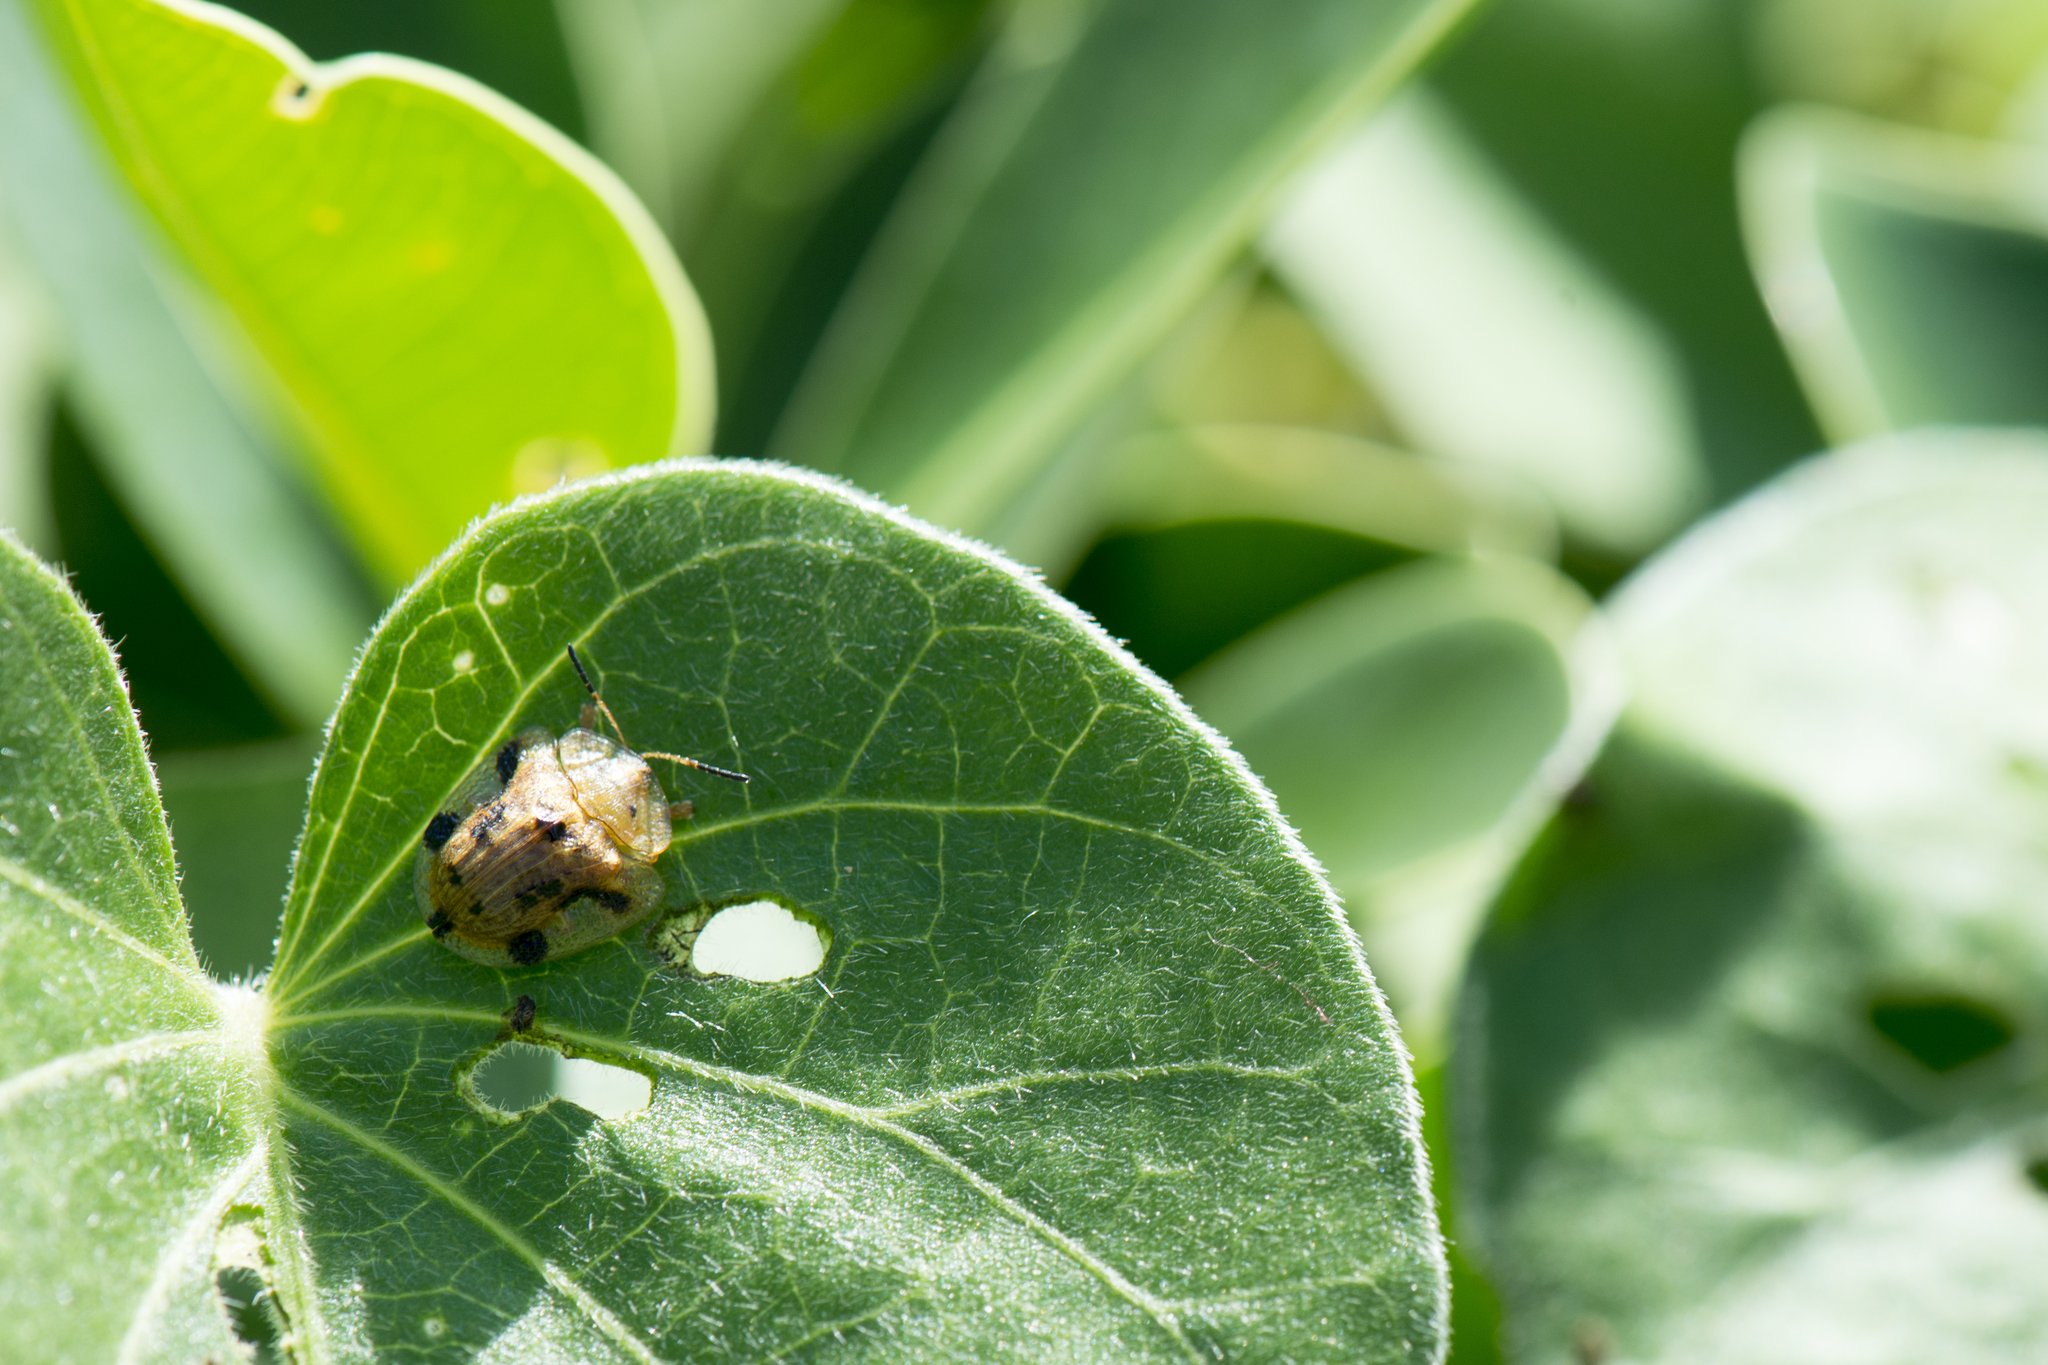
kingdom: Animalia
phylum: Arthropoda
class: Insecta
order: Coleoptera
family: Chrysomelidae
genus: Laccoptera
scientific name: Laccoptera nepalensis
